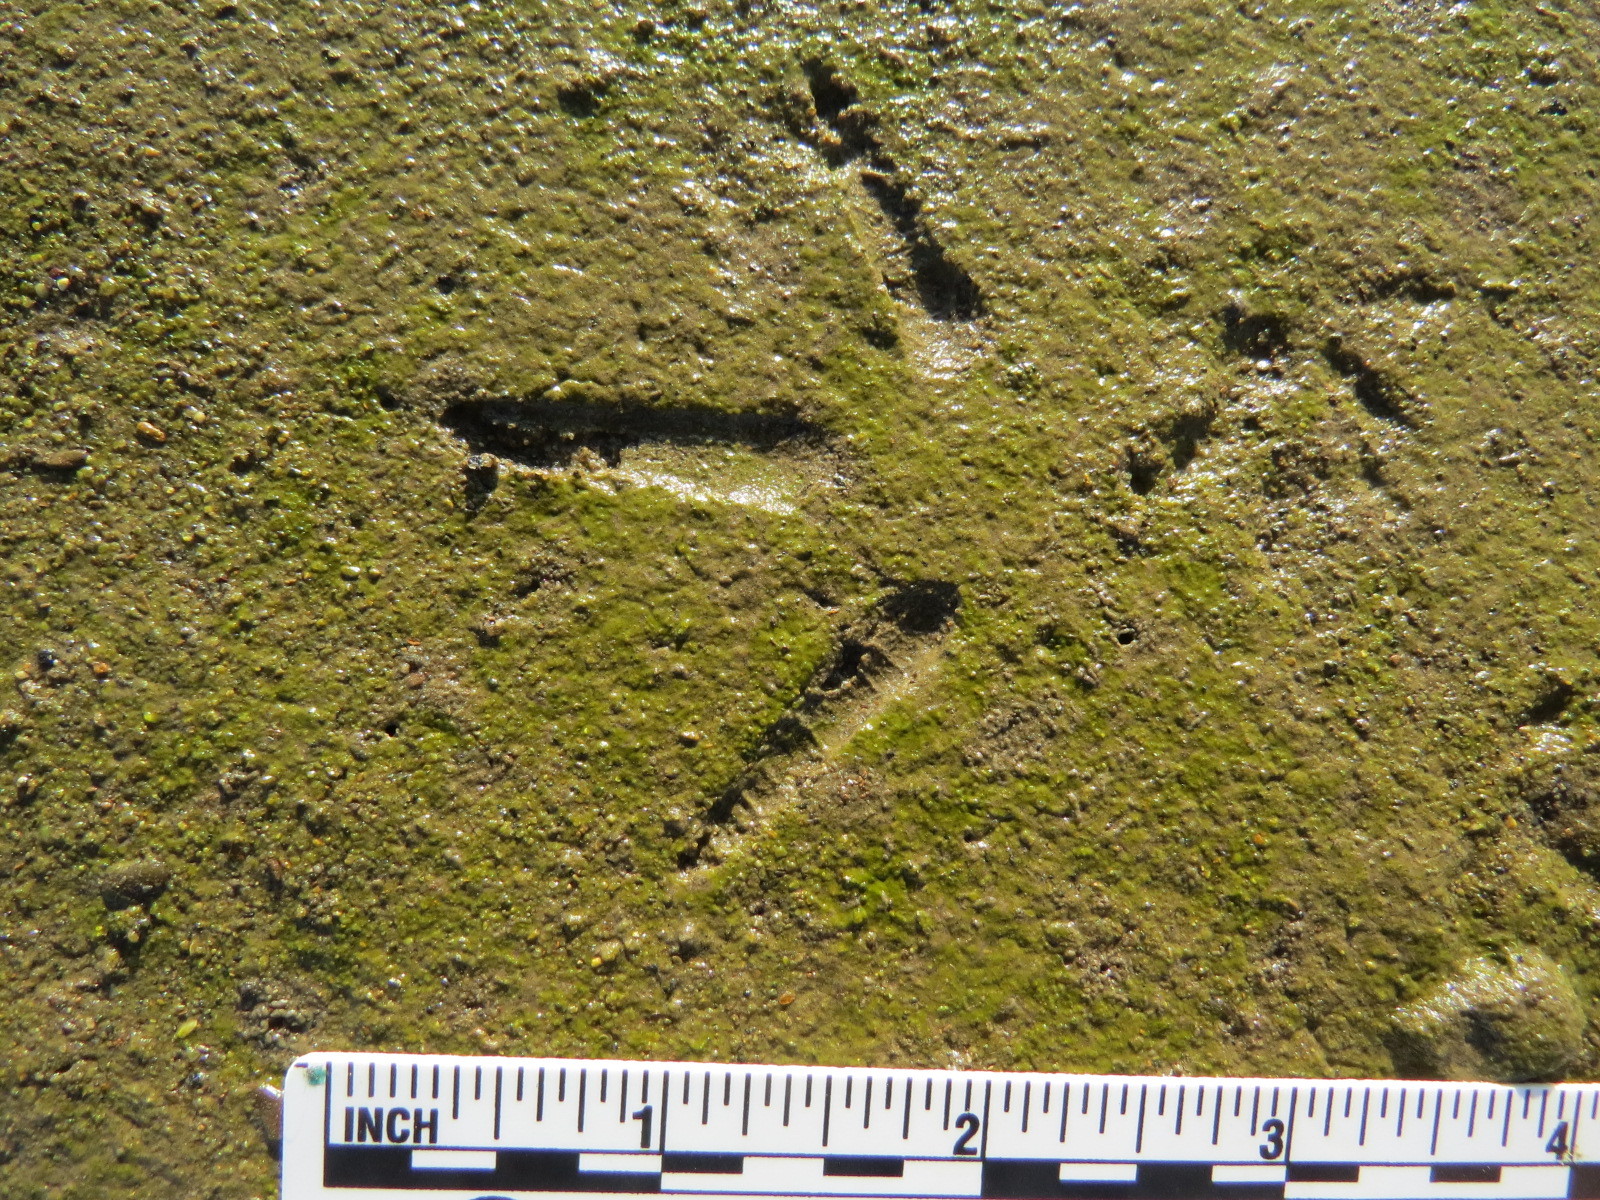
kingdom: Animalia
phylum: Chordata
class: Aves
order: Charadriiformes
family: Scolopacidae
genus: Numenius
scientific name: Numenius americanus
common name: Long-billed curlew
